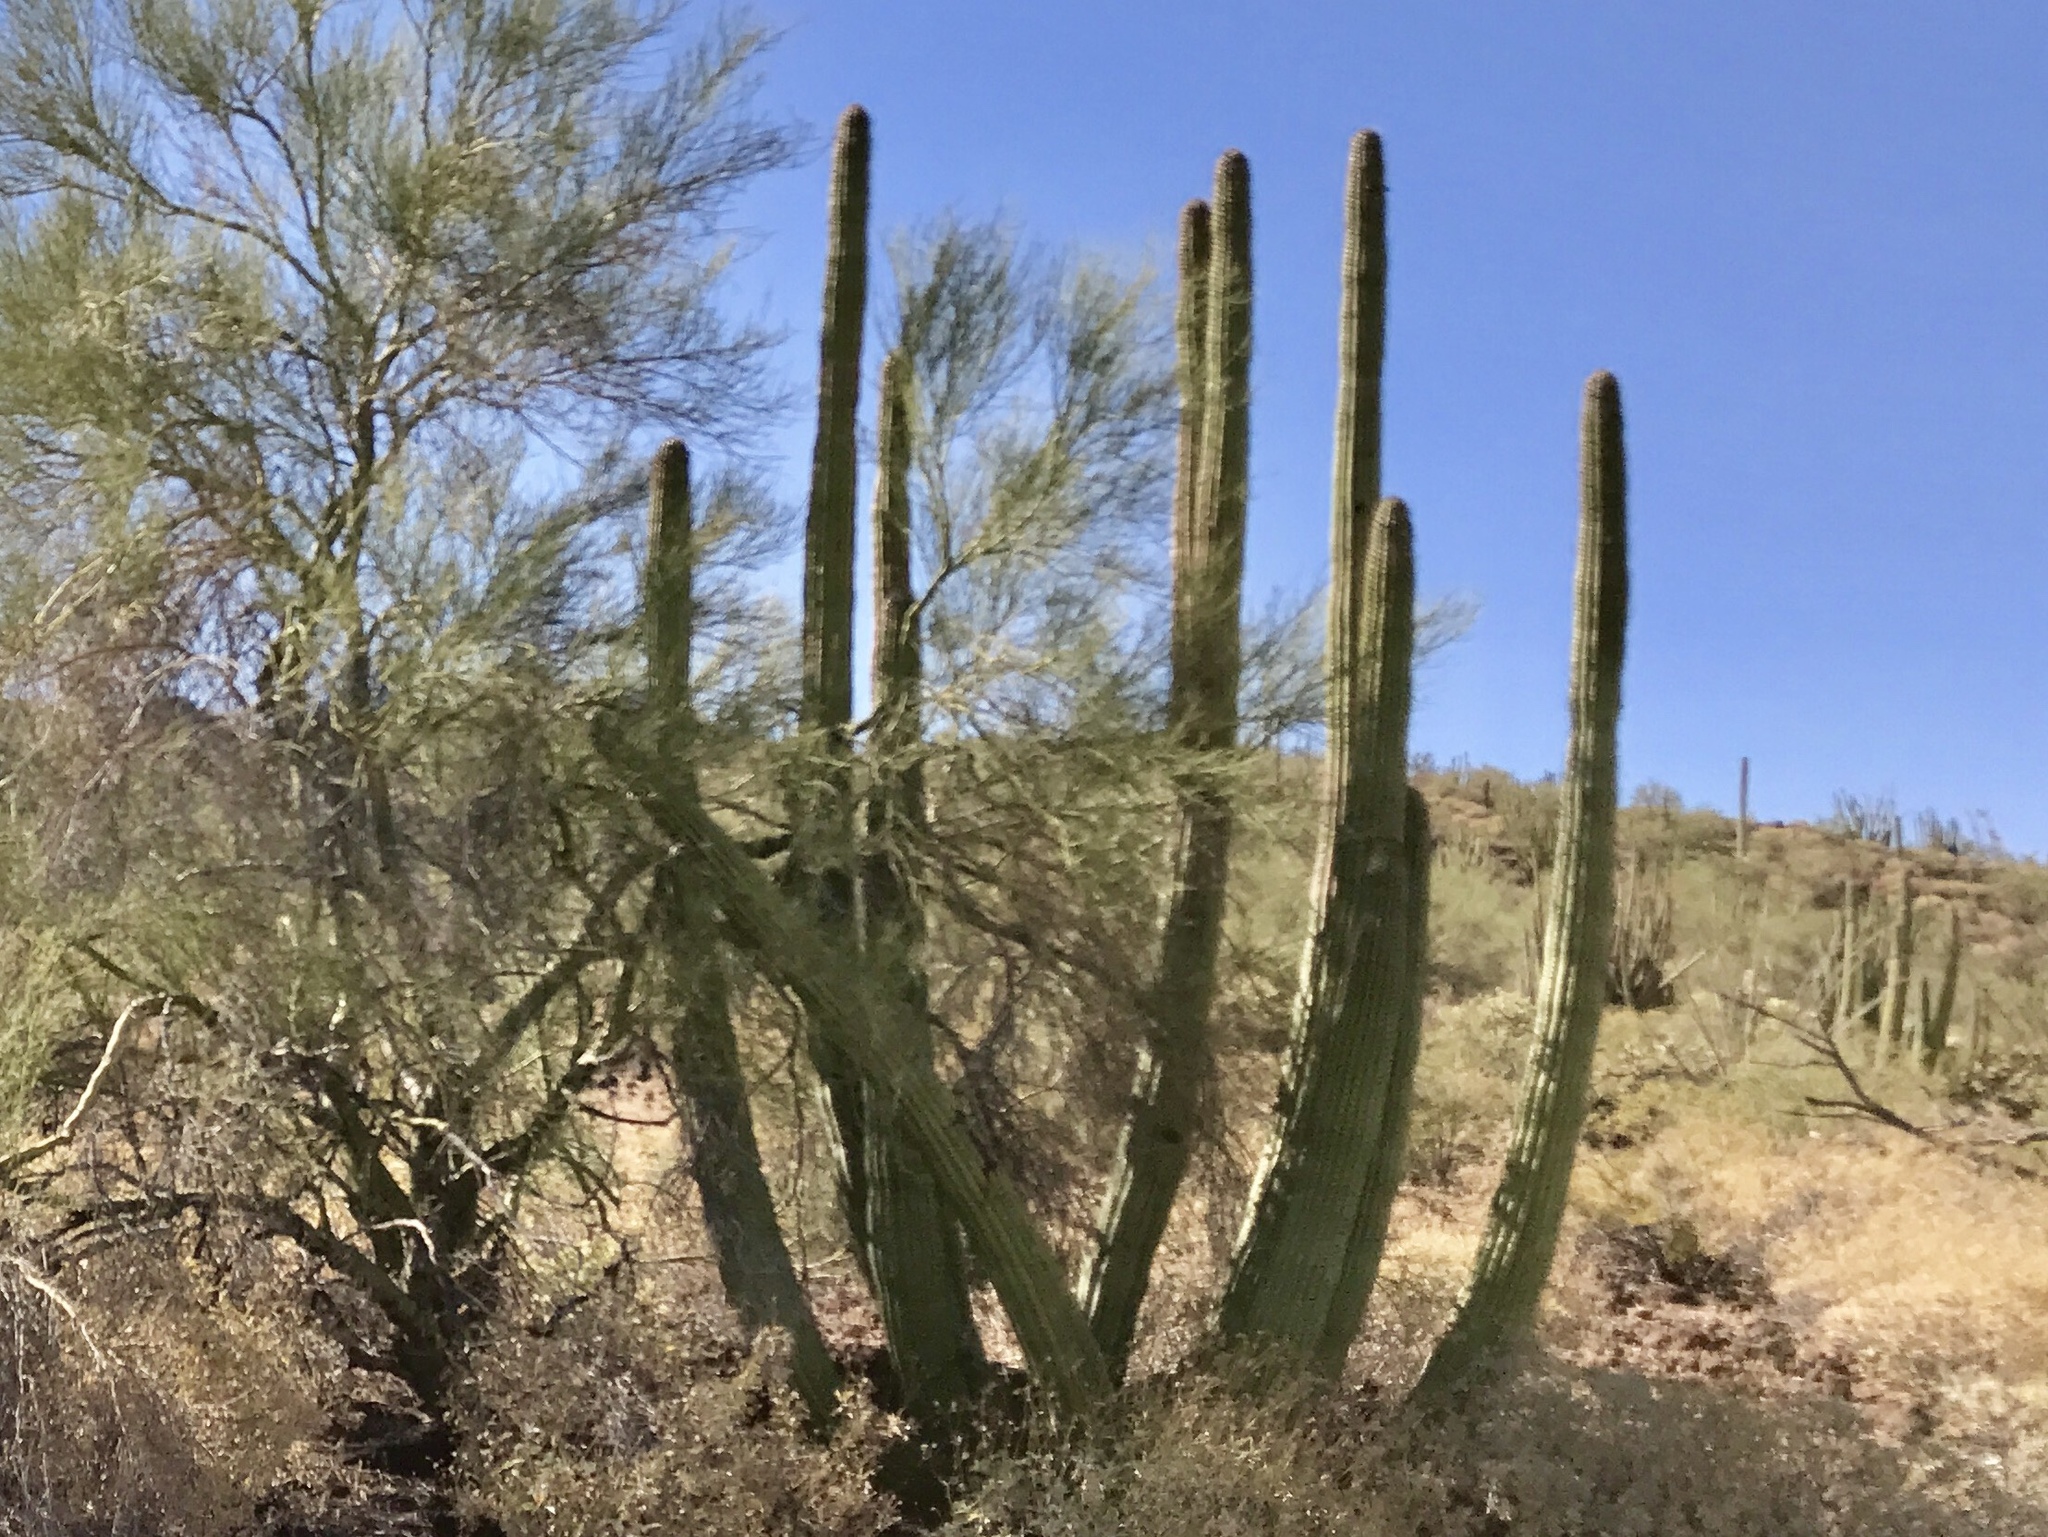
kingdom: Plantae
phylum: Tracheophyta
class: Magnoliopsida
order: Caryophyllales
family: Cactaceae
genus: Stenocereus
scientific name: Stenocereus thurberi
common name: Organ pipe cactus
